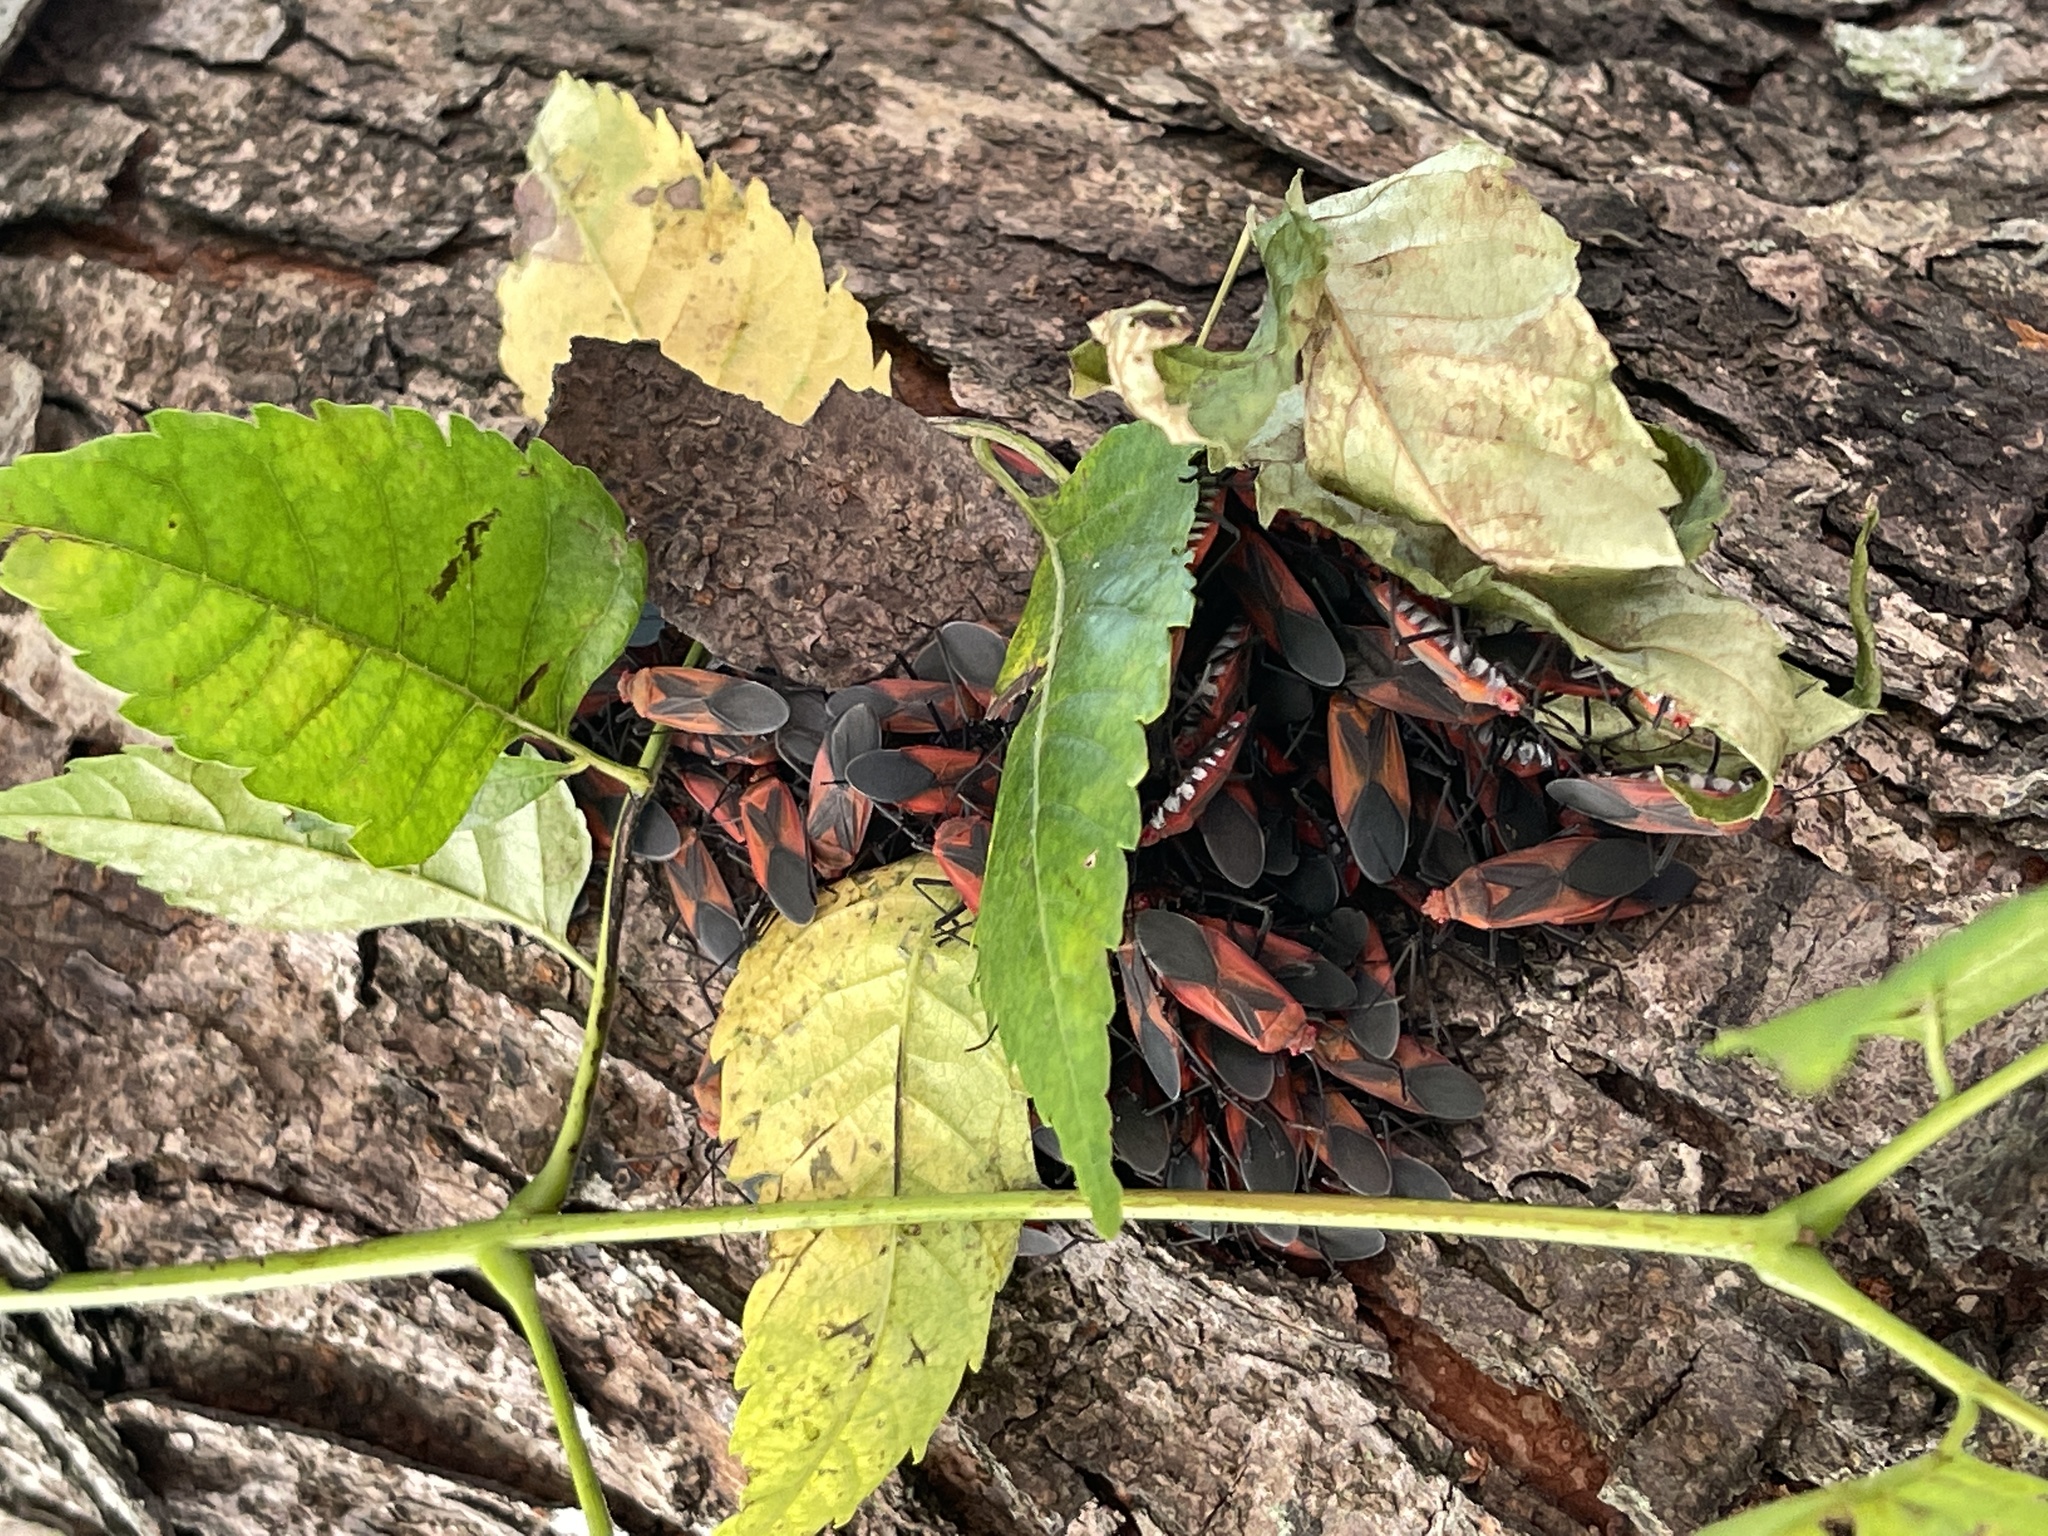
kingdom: Animalia
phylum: Arthropoda
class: Insecta
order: Hemiptera
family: Rhopalidae
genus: Leptocoris
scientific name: Leptocoris vicinus
